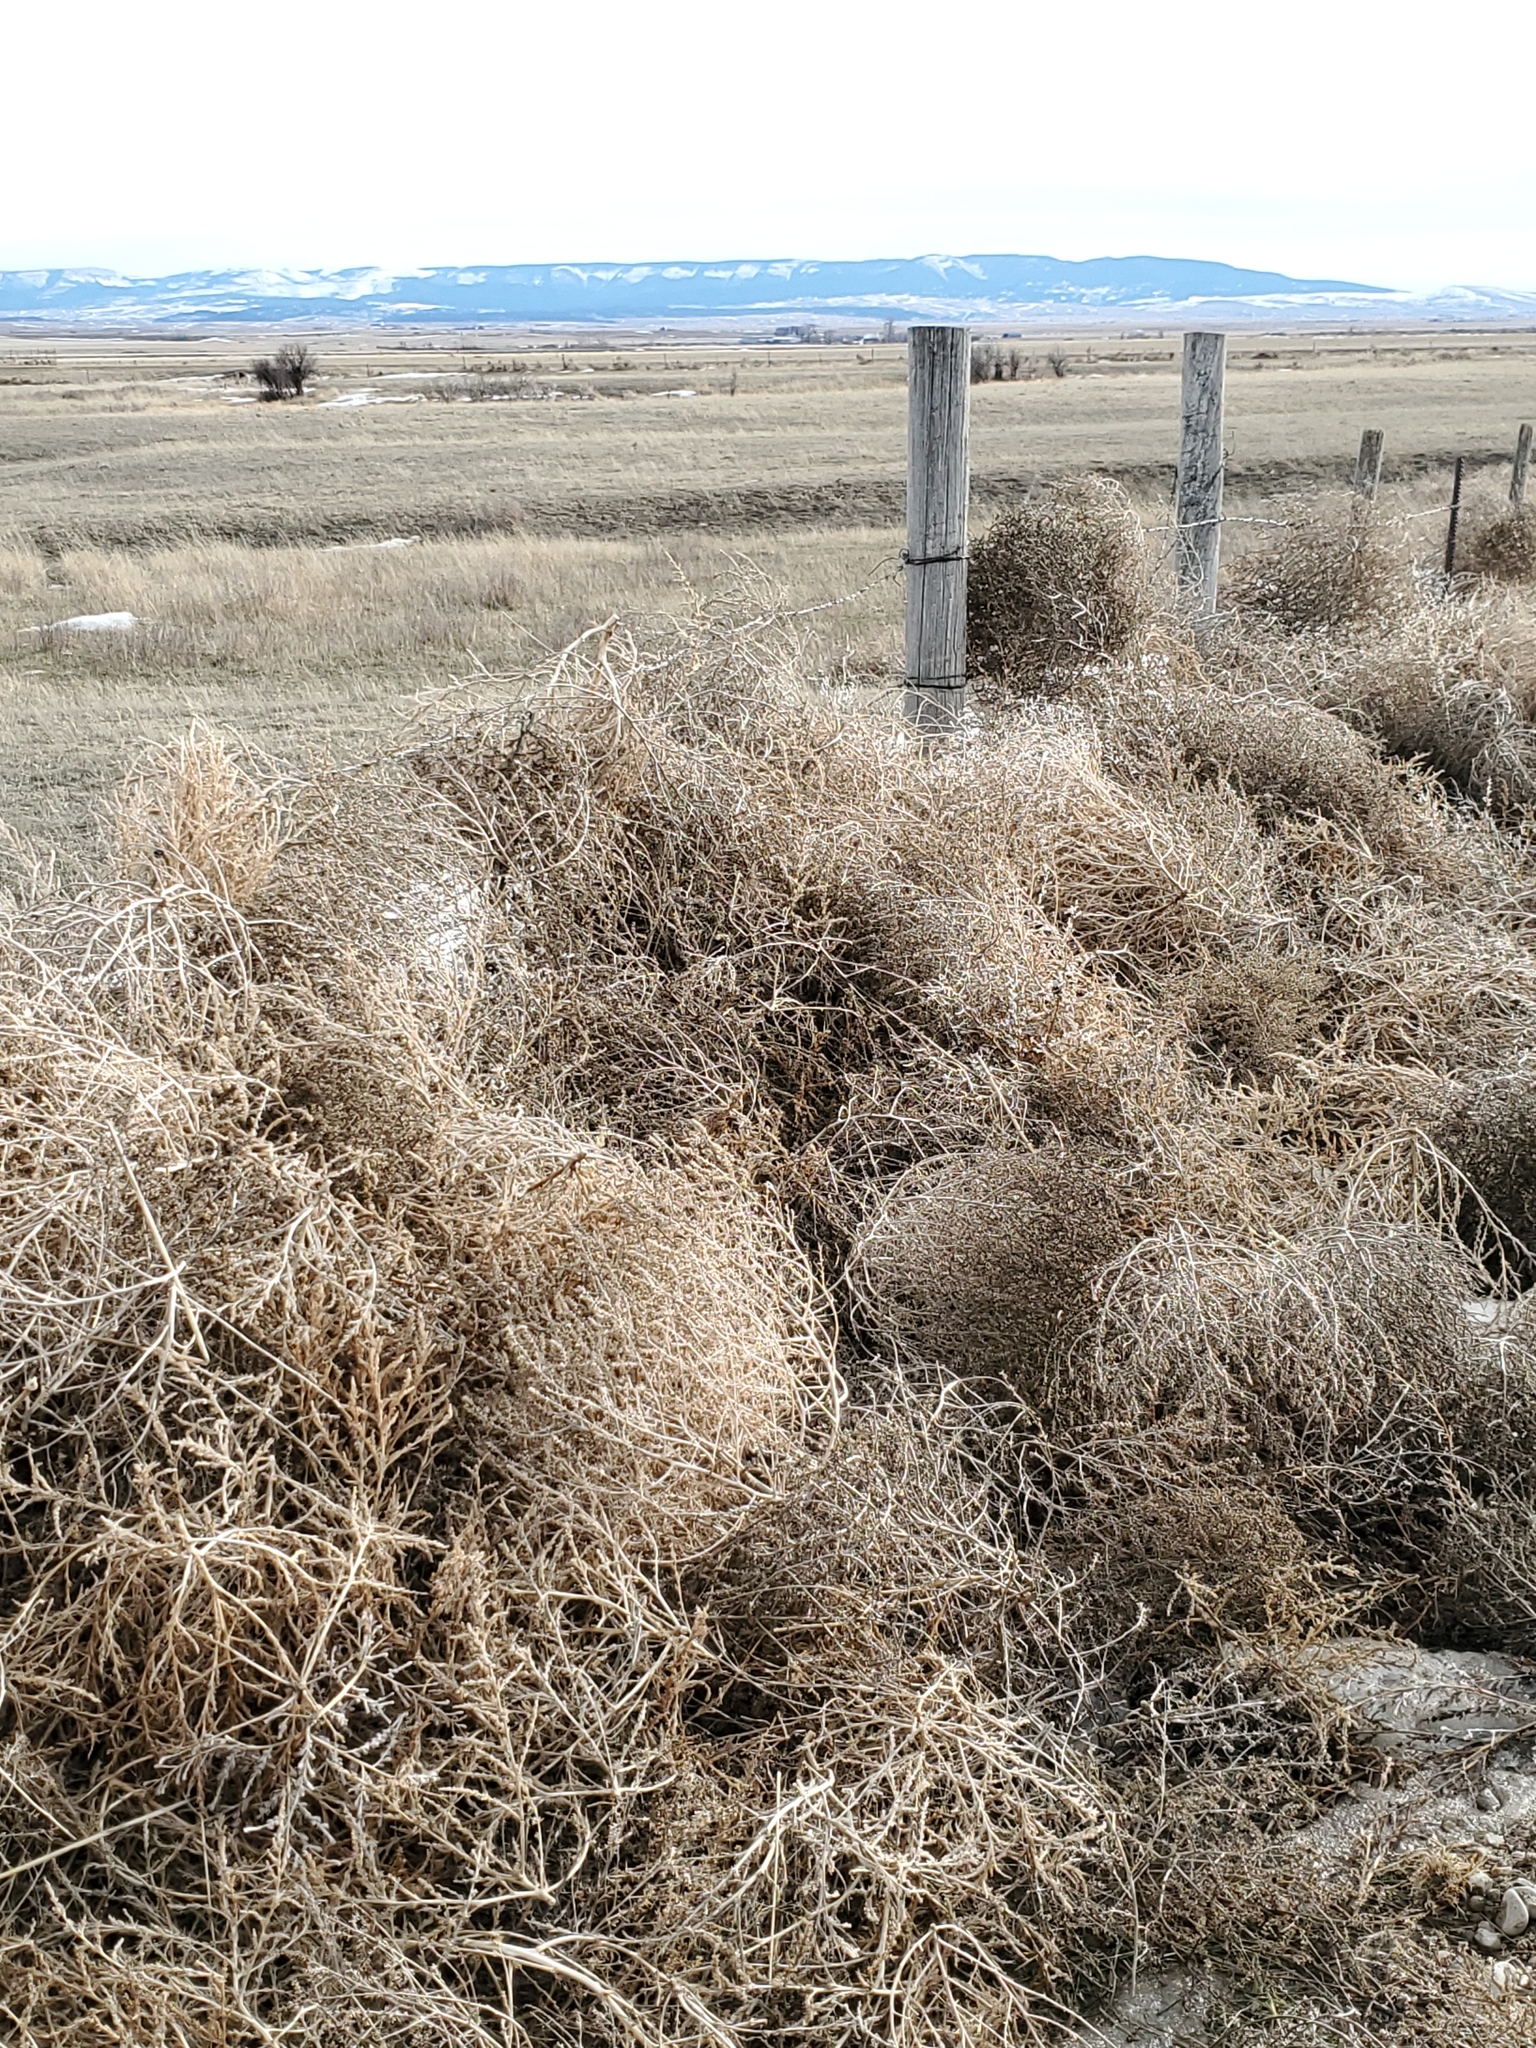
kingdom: Plantae
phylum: Tracheophyta
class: Magnoliopsida
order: Caryophyllales
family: Amaranthaceae
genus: Salsola
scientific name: Salsola tragus
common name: Prickly russian thistle
